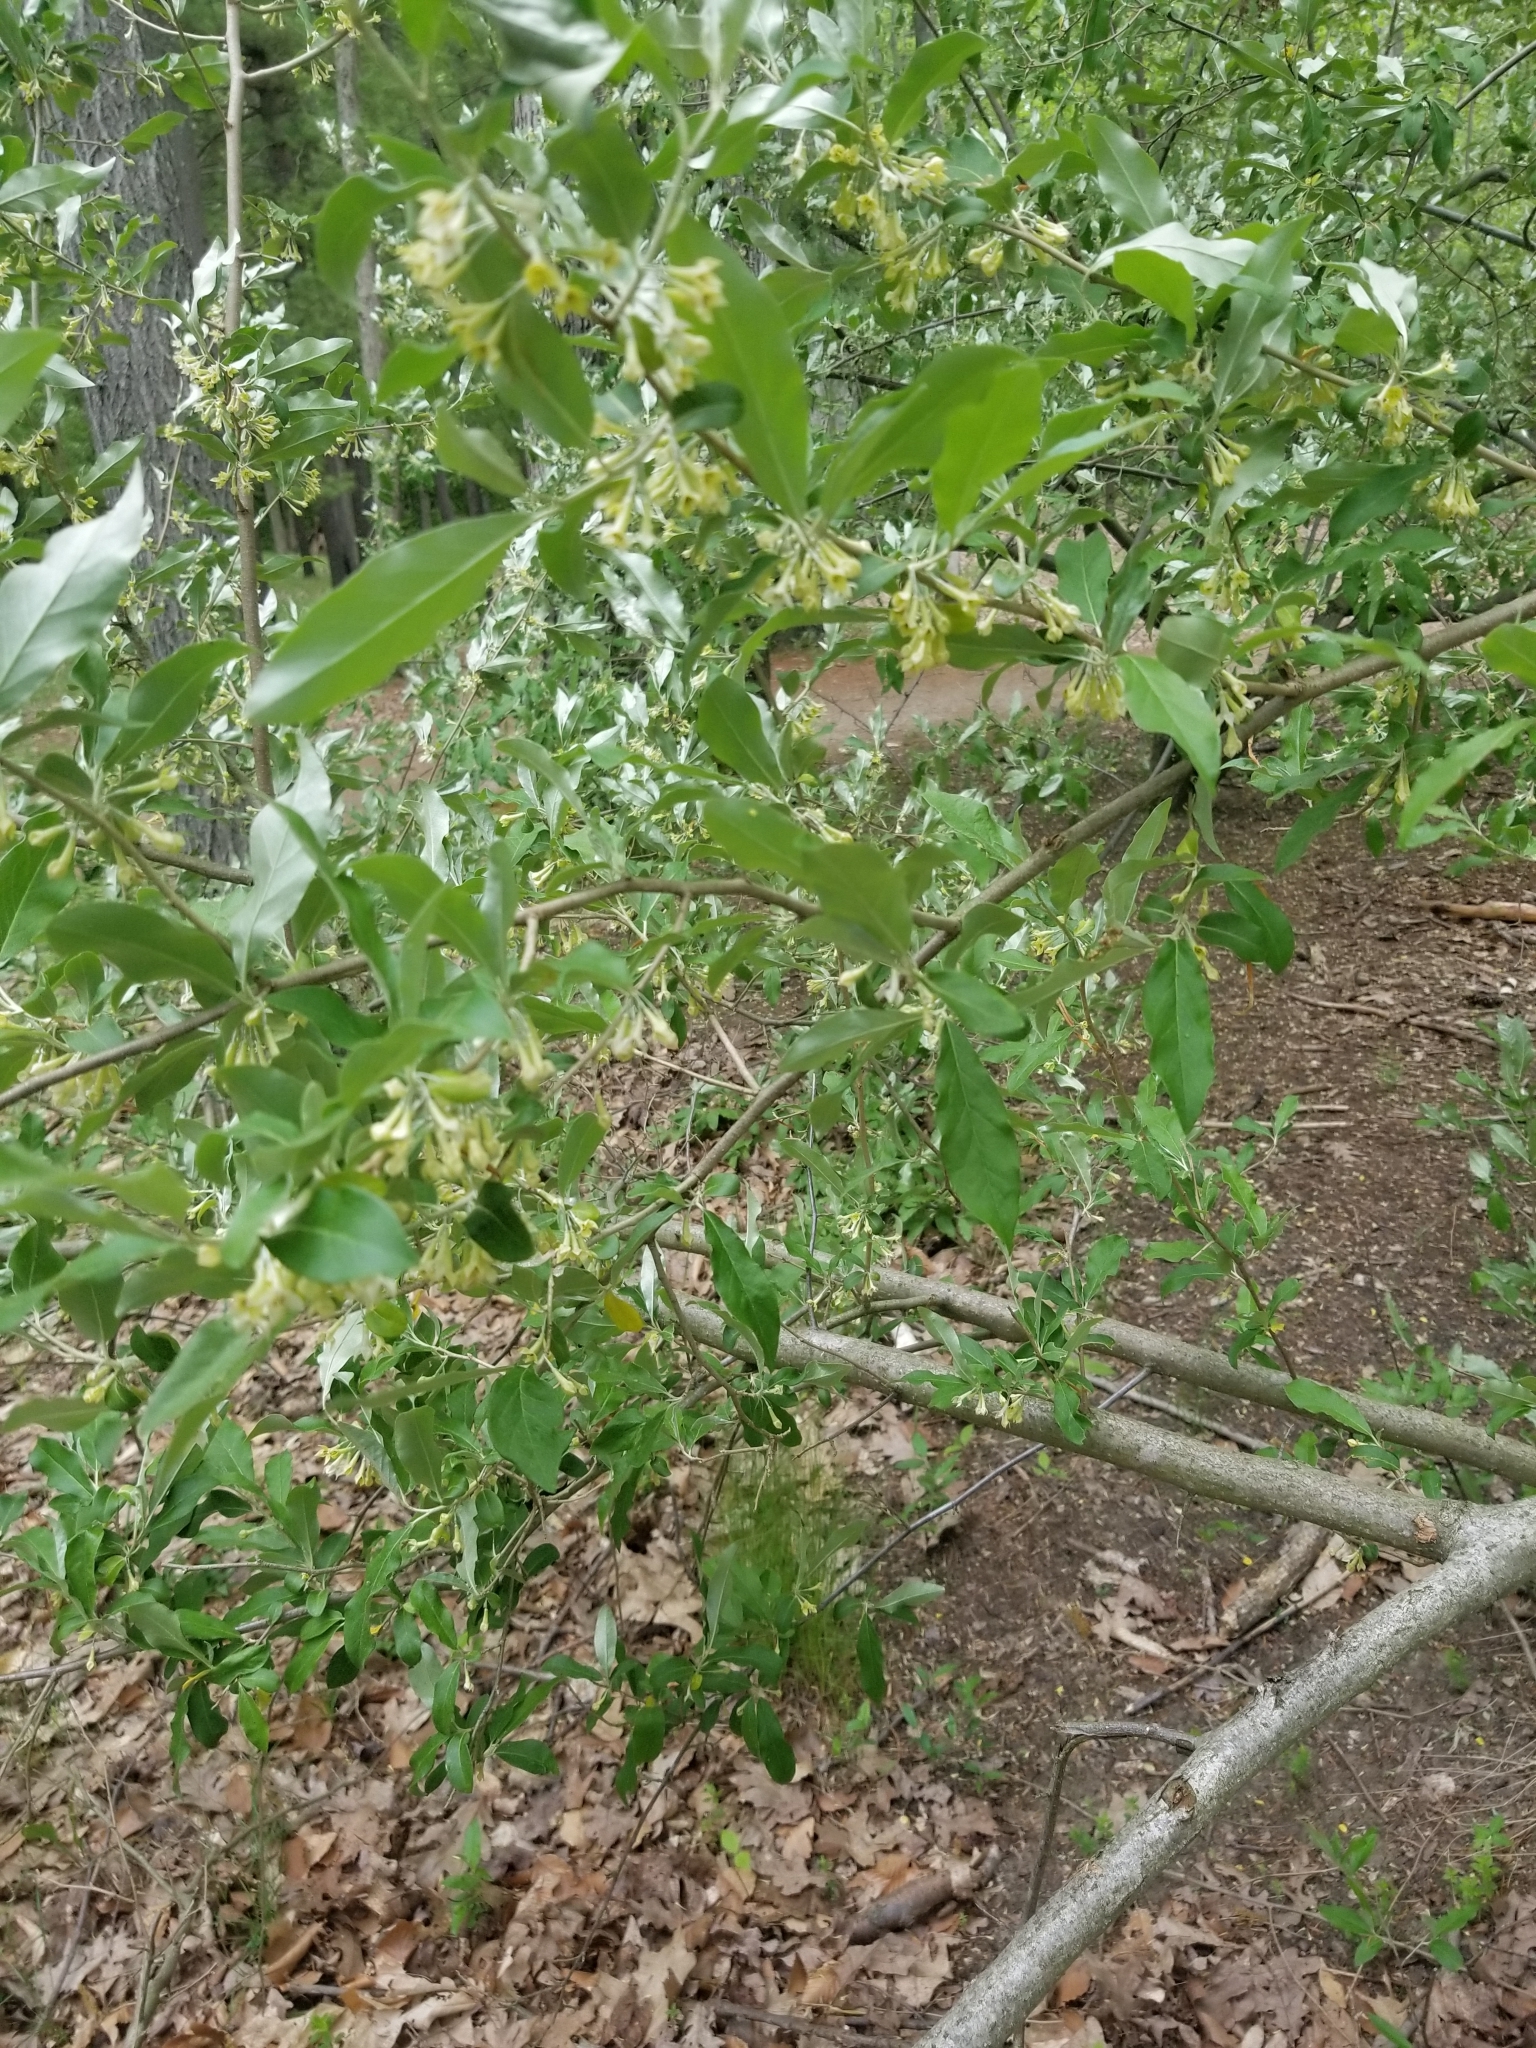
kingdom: Plantae
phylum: Tracheophyta
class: Magnoliopsida
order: Rosales
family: Elaeagnaceae
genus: Elaeagnus
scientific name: Elaeagnus umbellata
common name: Autumn olive
